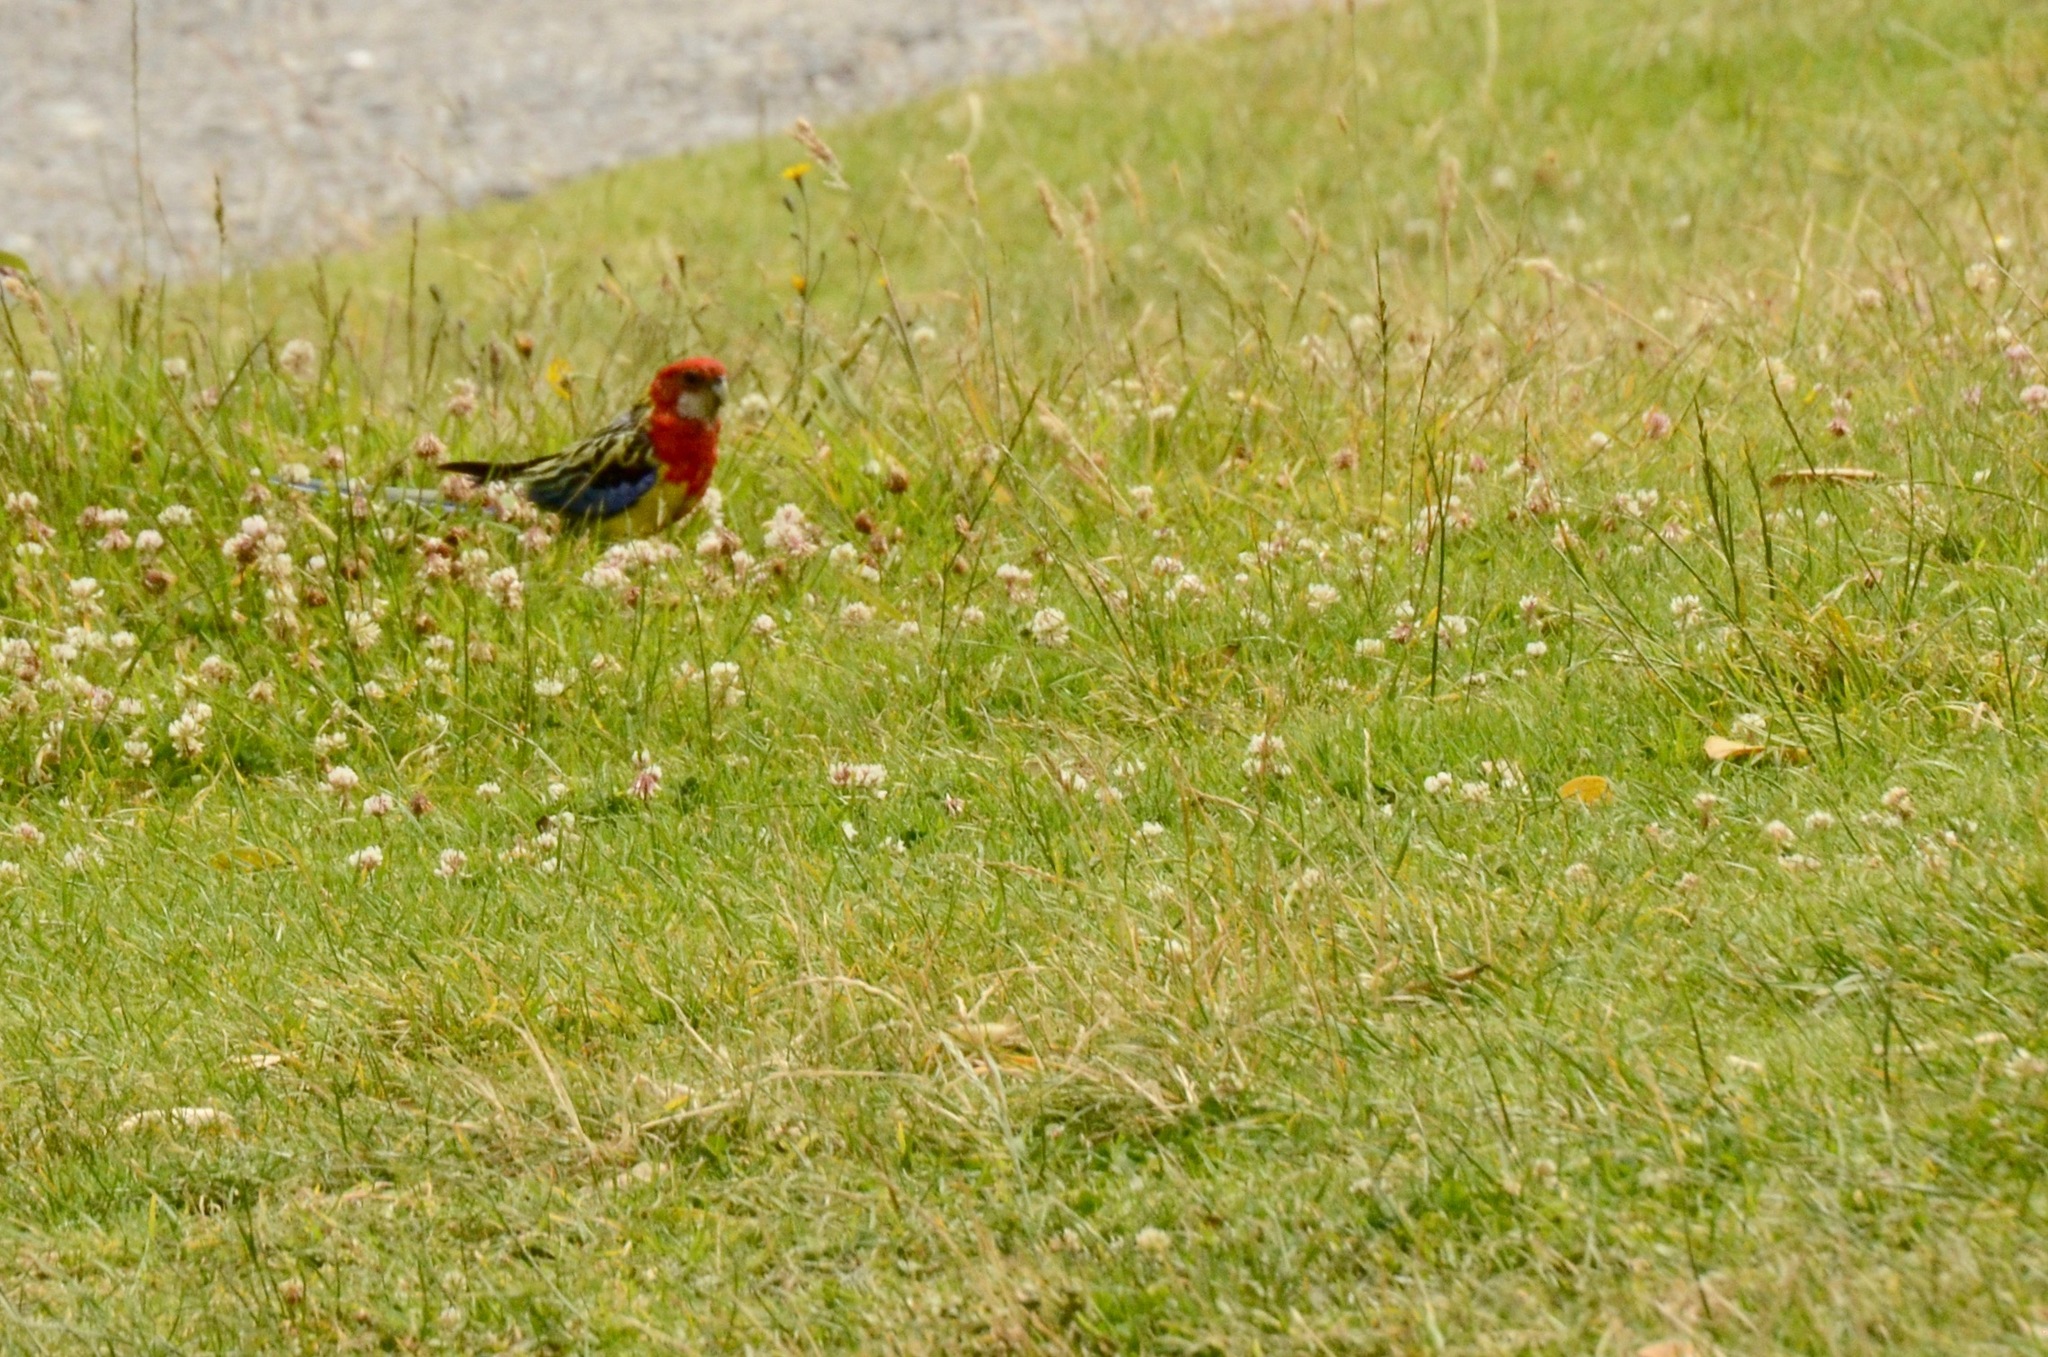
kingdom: Animalia
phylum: Chordata
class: Aves
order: Psittaciformes
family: Psittacidae
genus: Platycercus
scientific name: Platycercus eximius
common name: Eastern rosella
